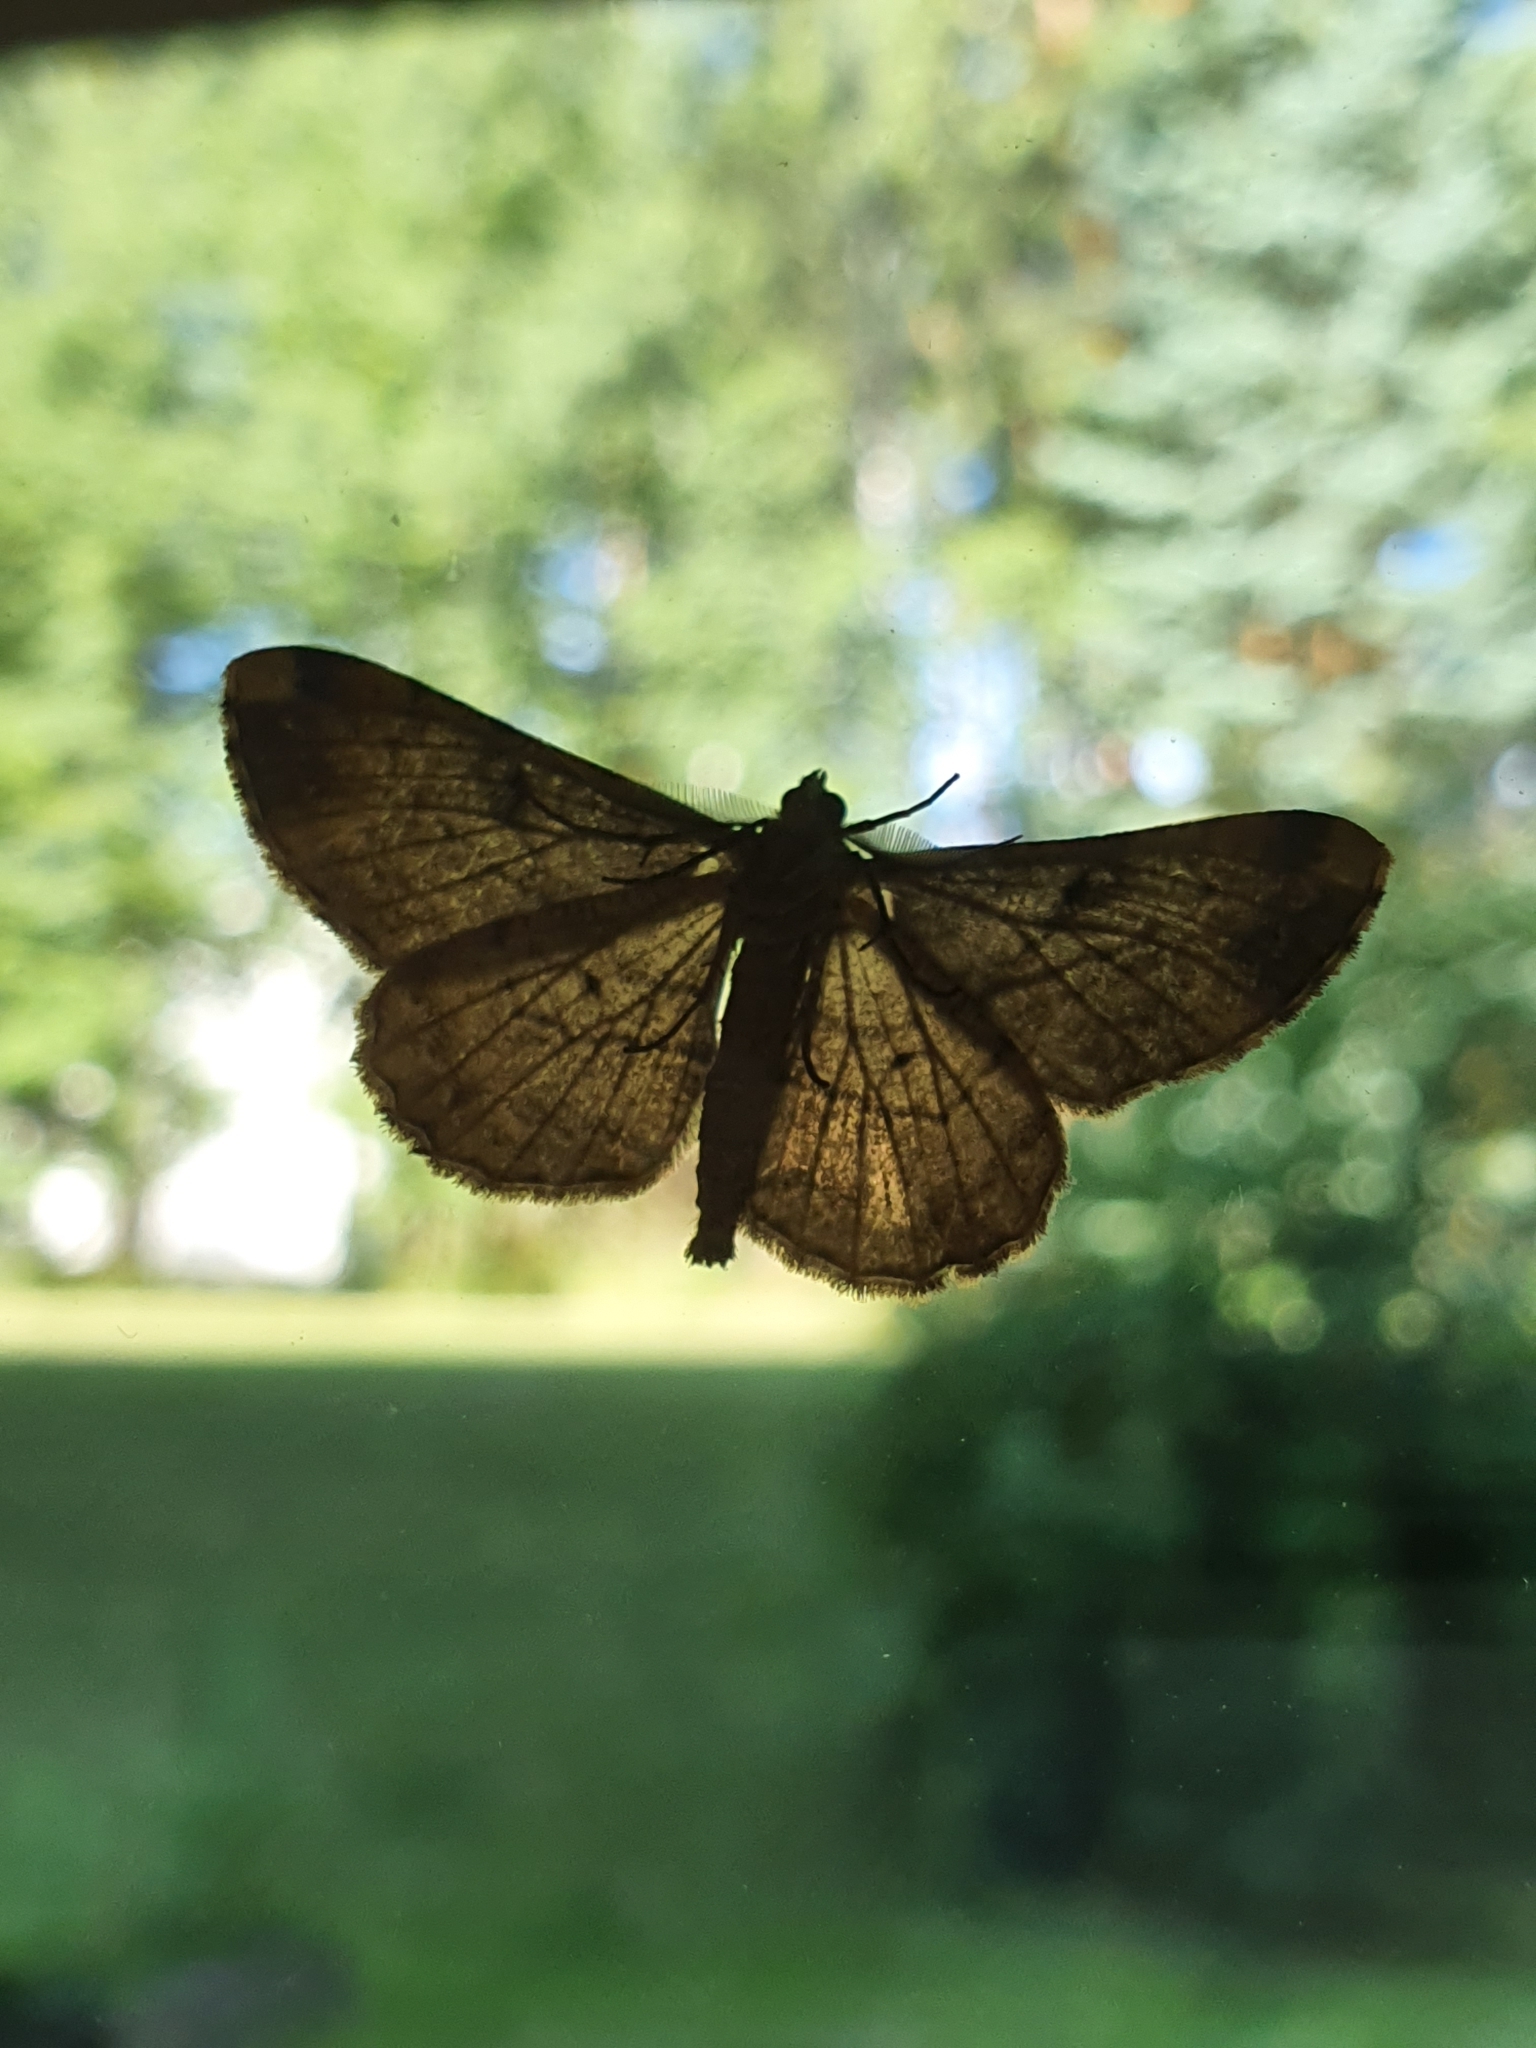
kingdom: Animalia
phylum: Arthropoda
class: Insecta
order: Lepidoptera
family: Geometridae
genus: Peribatodes
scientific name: Peribatodes rhomboidaria
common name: Willow beauty
